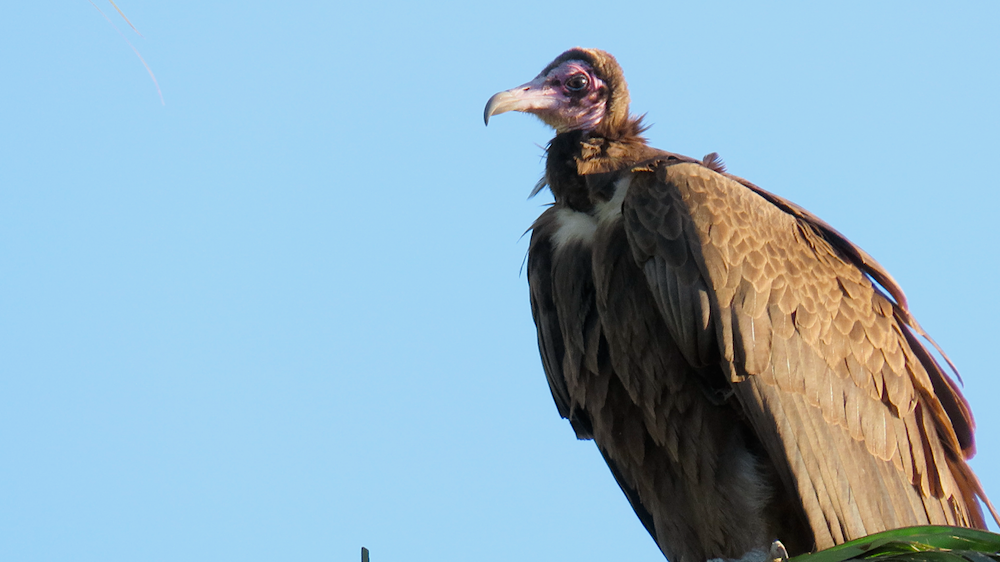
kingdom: Animalia
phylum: Chordata
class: Aves
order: Accipitriformes
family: Accipitridae
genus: Necrosyrtes
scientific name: Necrosyrtes monachus
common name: Hooded vulture
